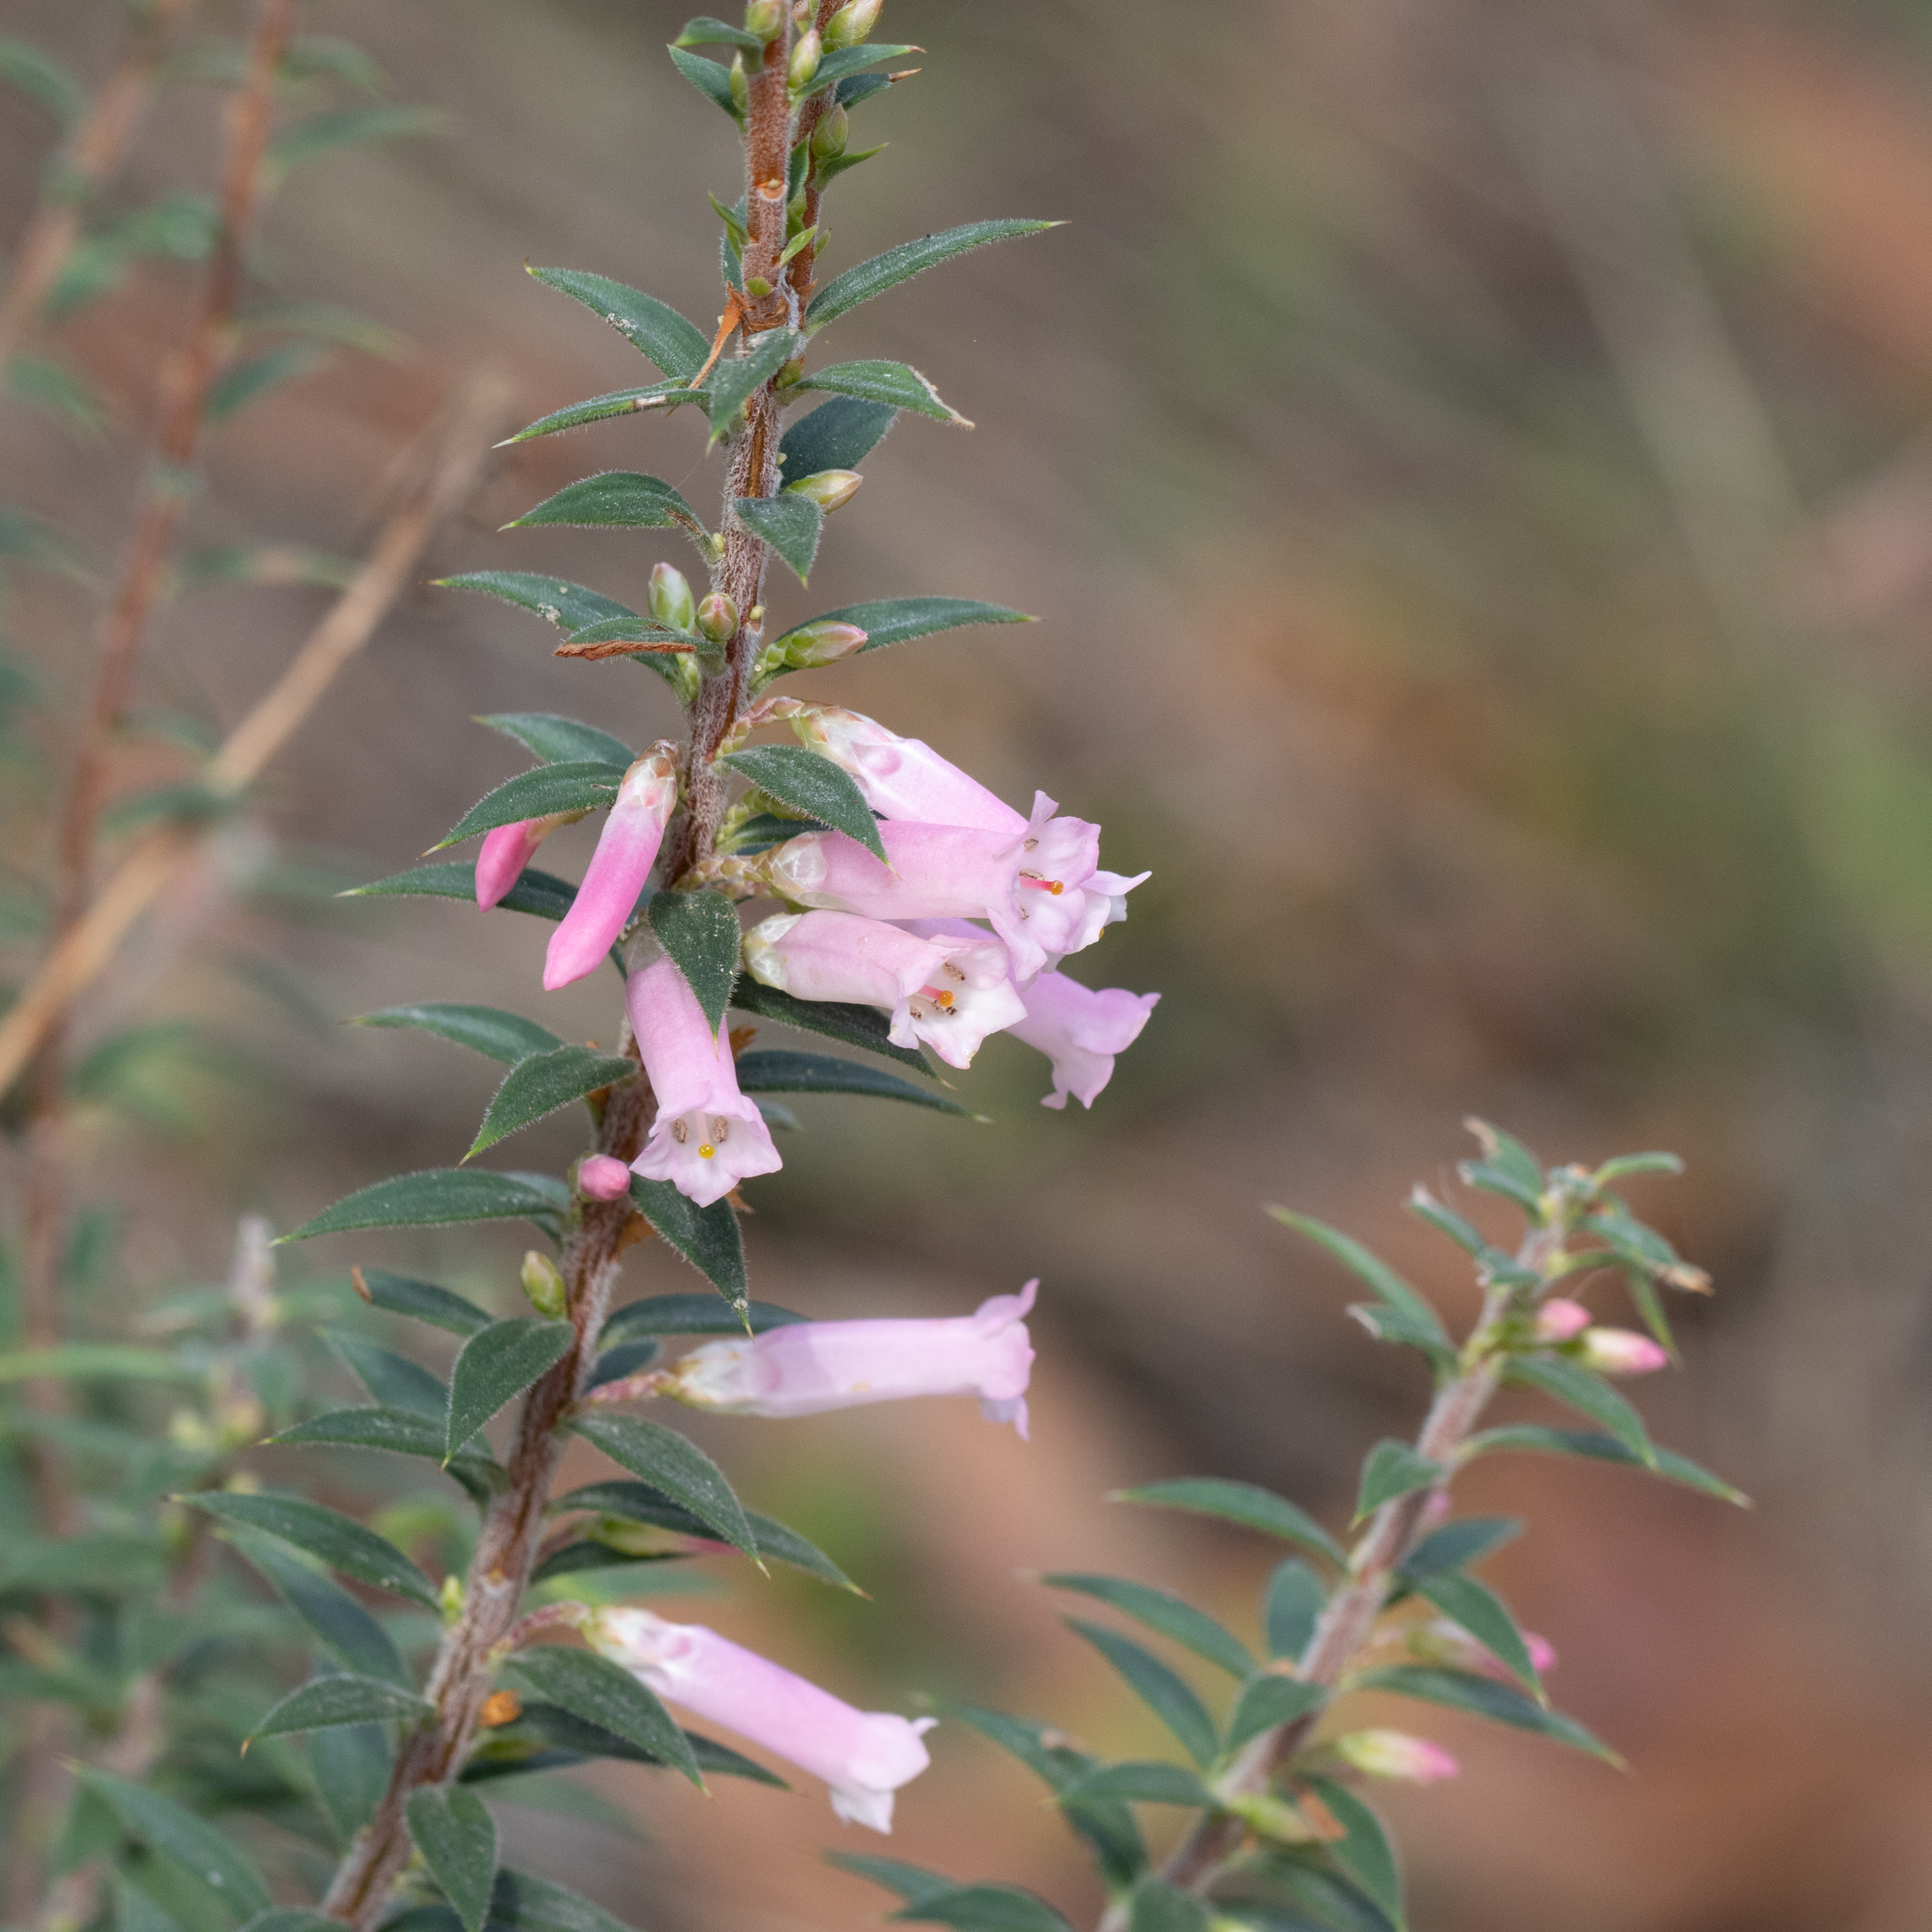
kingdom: Plantae
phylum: Tracheophyta
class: Magnoliopsida
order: Ericales
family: Ericaceae
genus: Epacris
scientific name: Epacris impressa
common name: Common-heath
